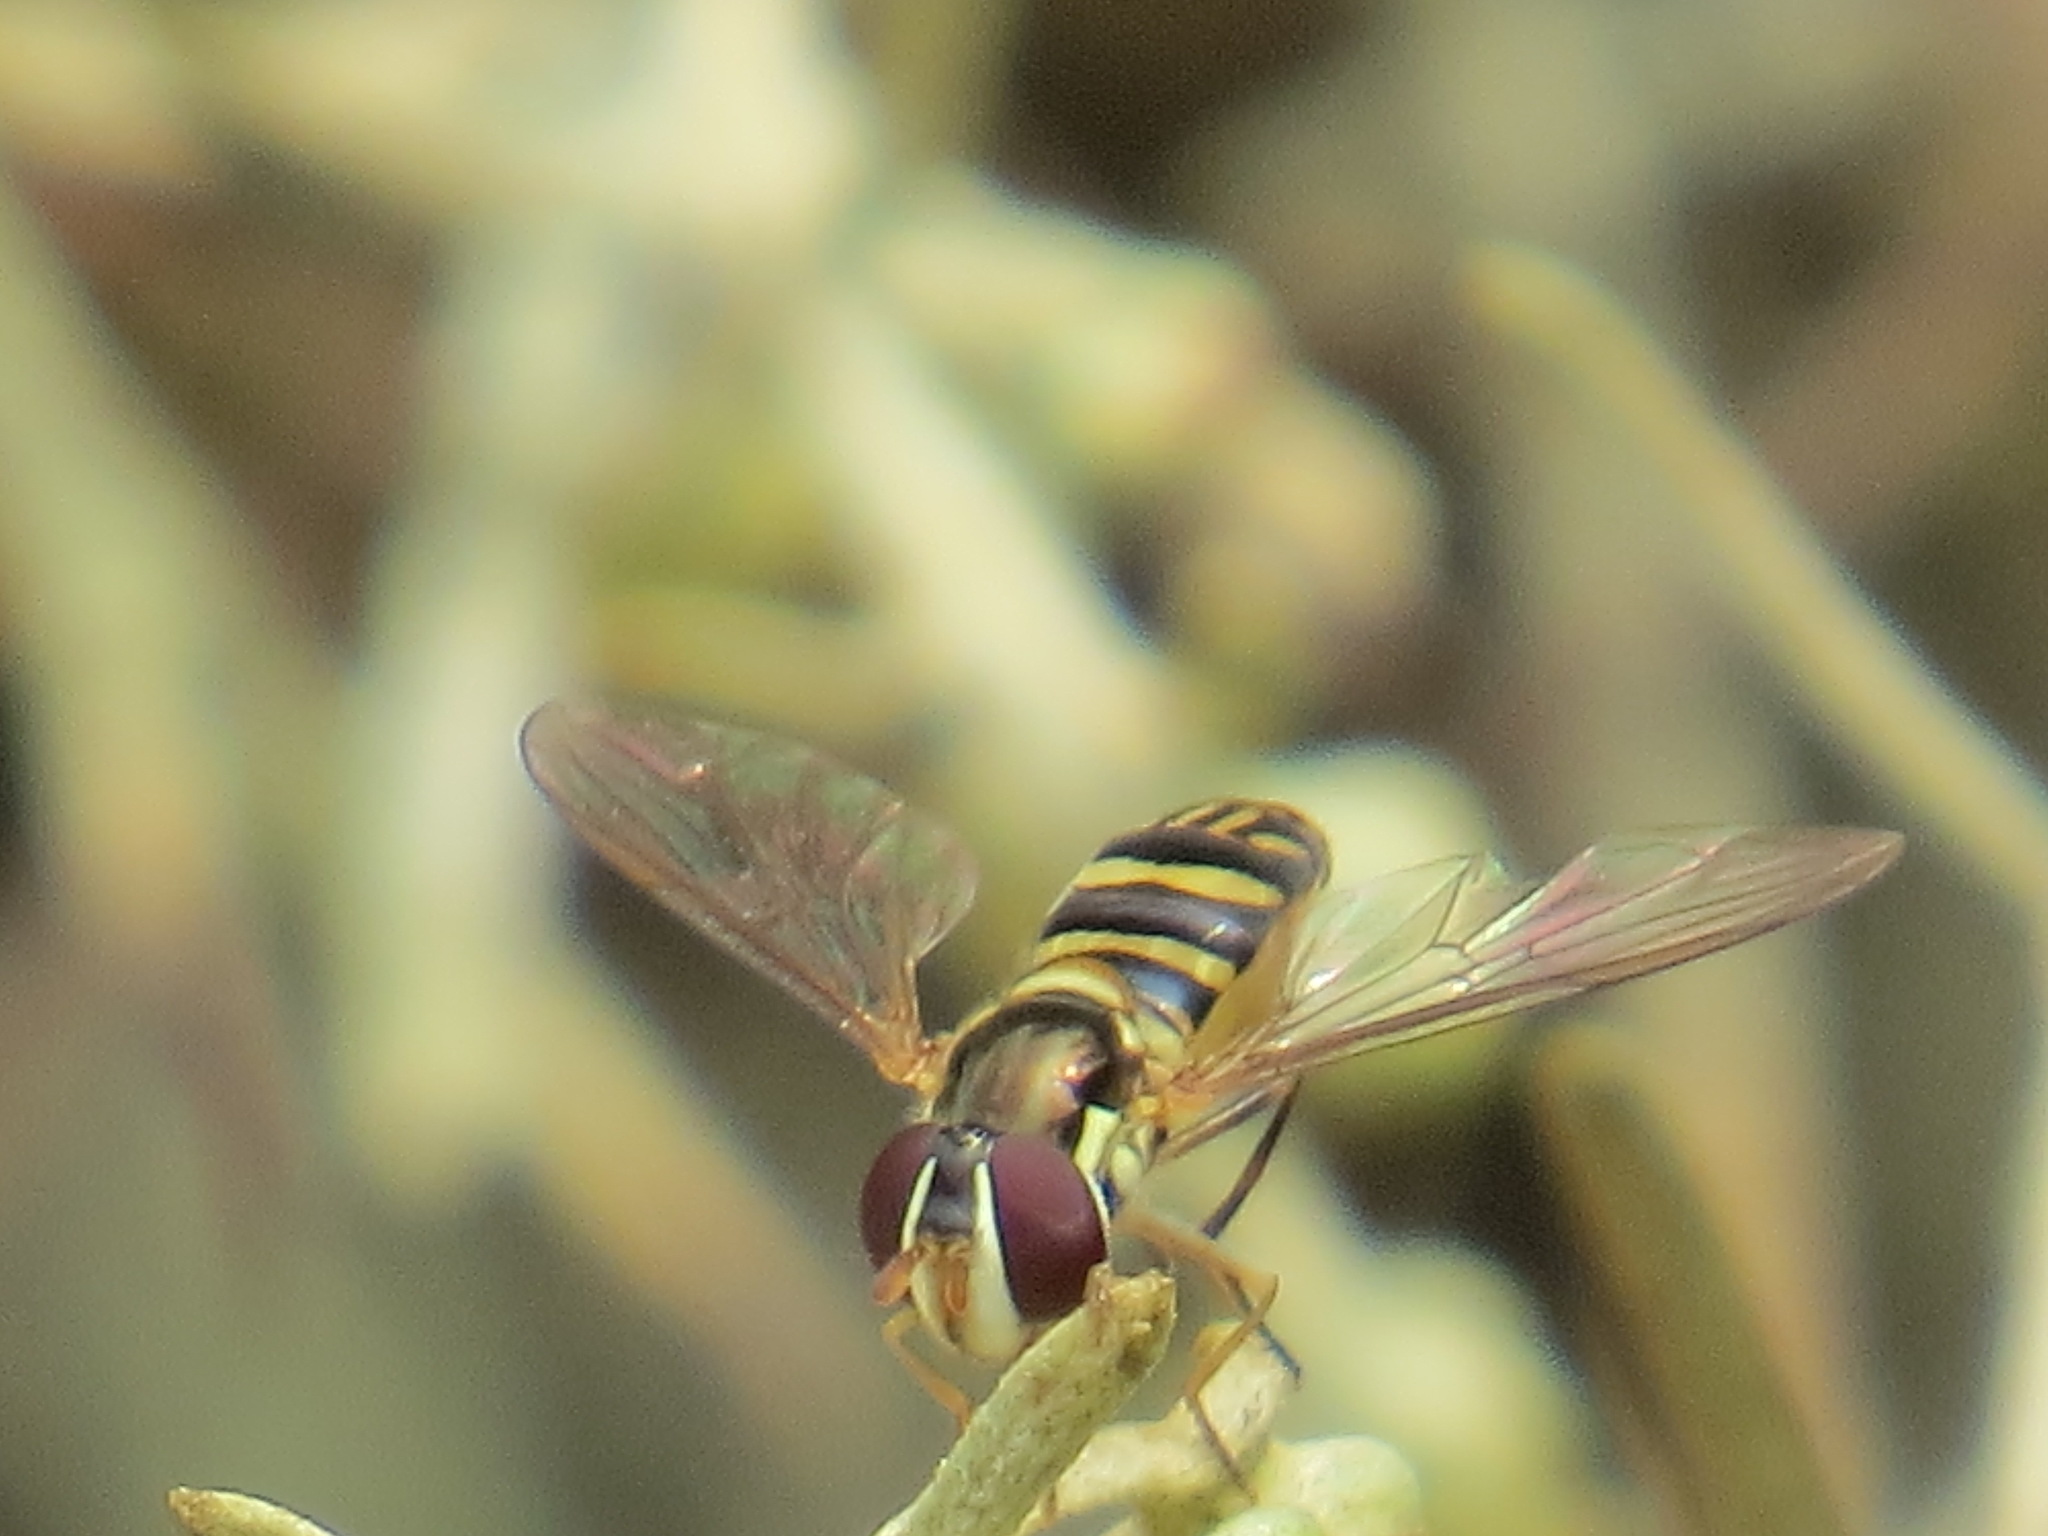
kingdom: Animalia
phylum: Arthropoda
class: Insecta
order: Diptera
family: Syrphidae
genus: Allograpta
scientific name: Allograpta obliqua
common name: Common oblique syrphid
